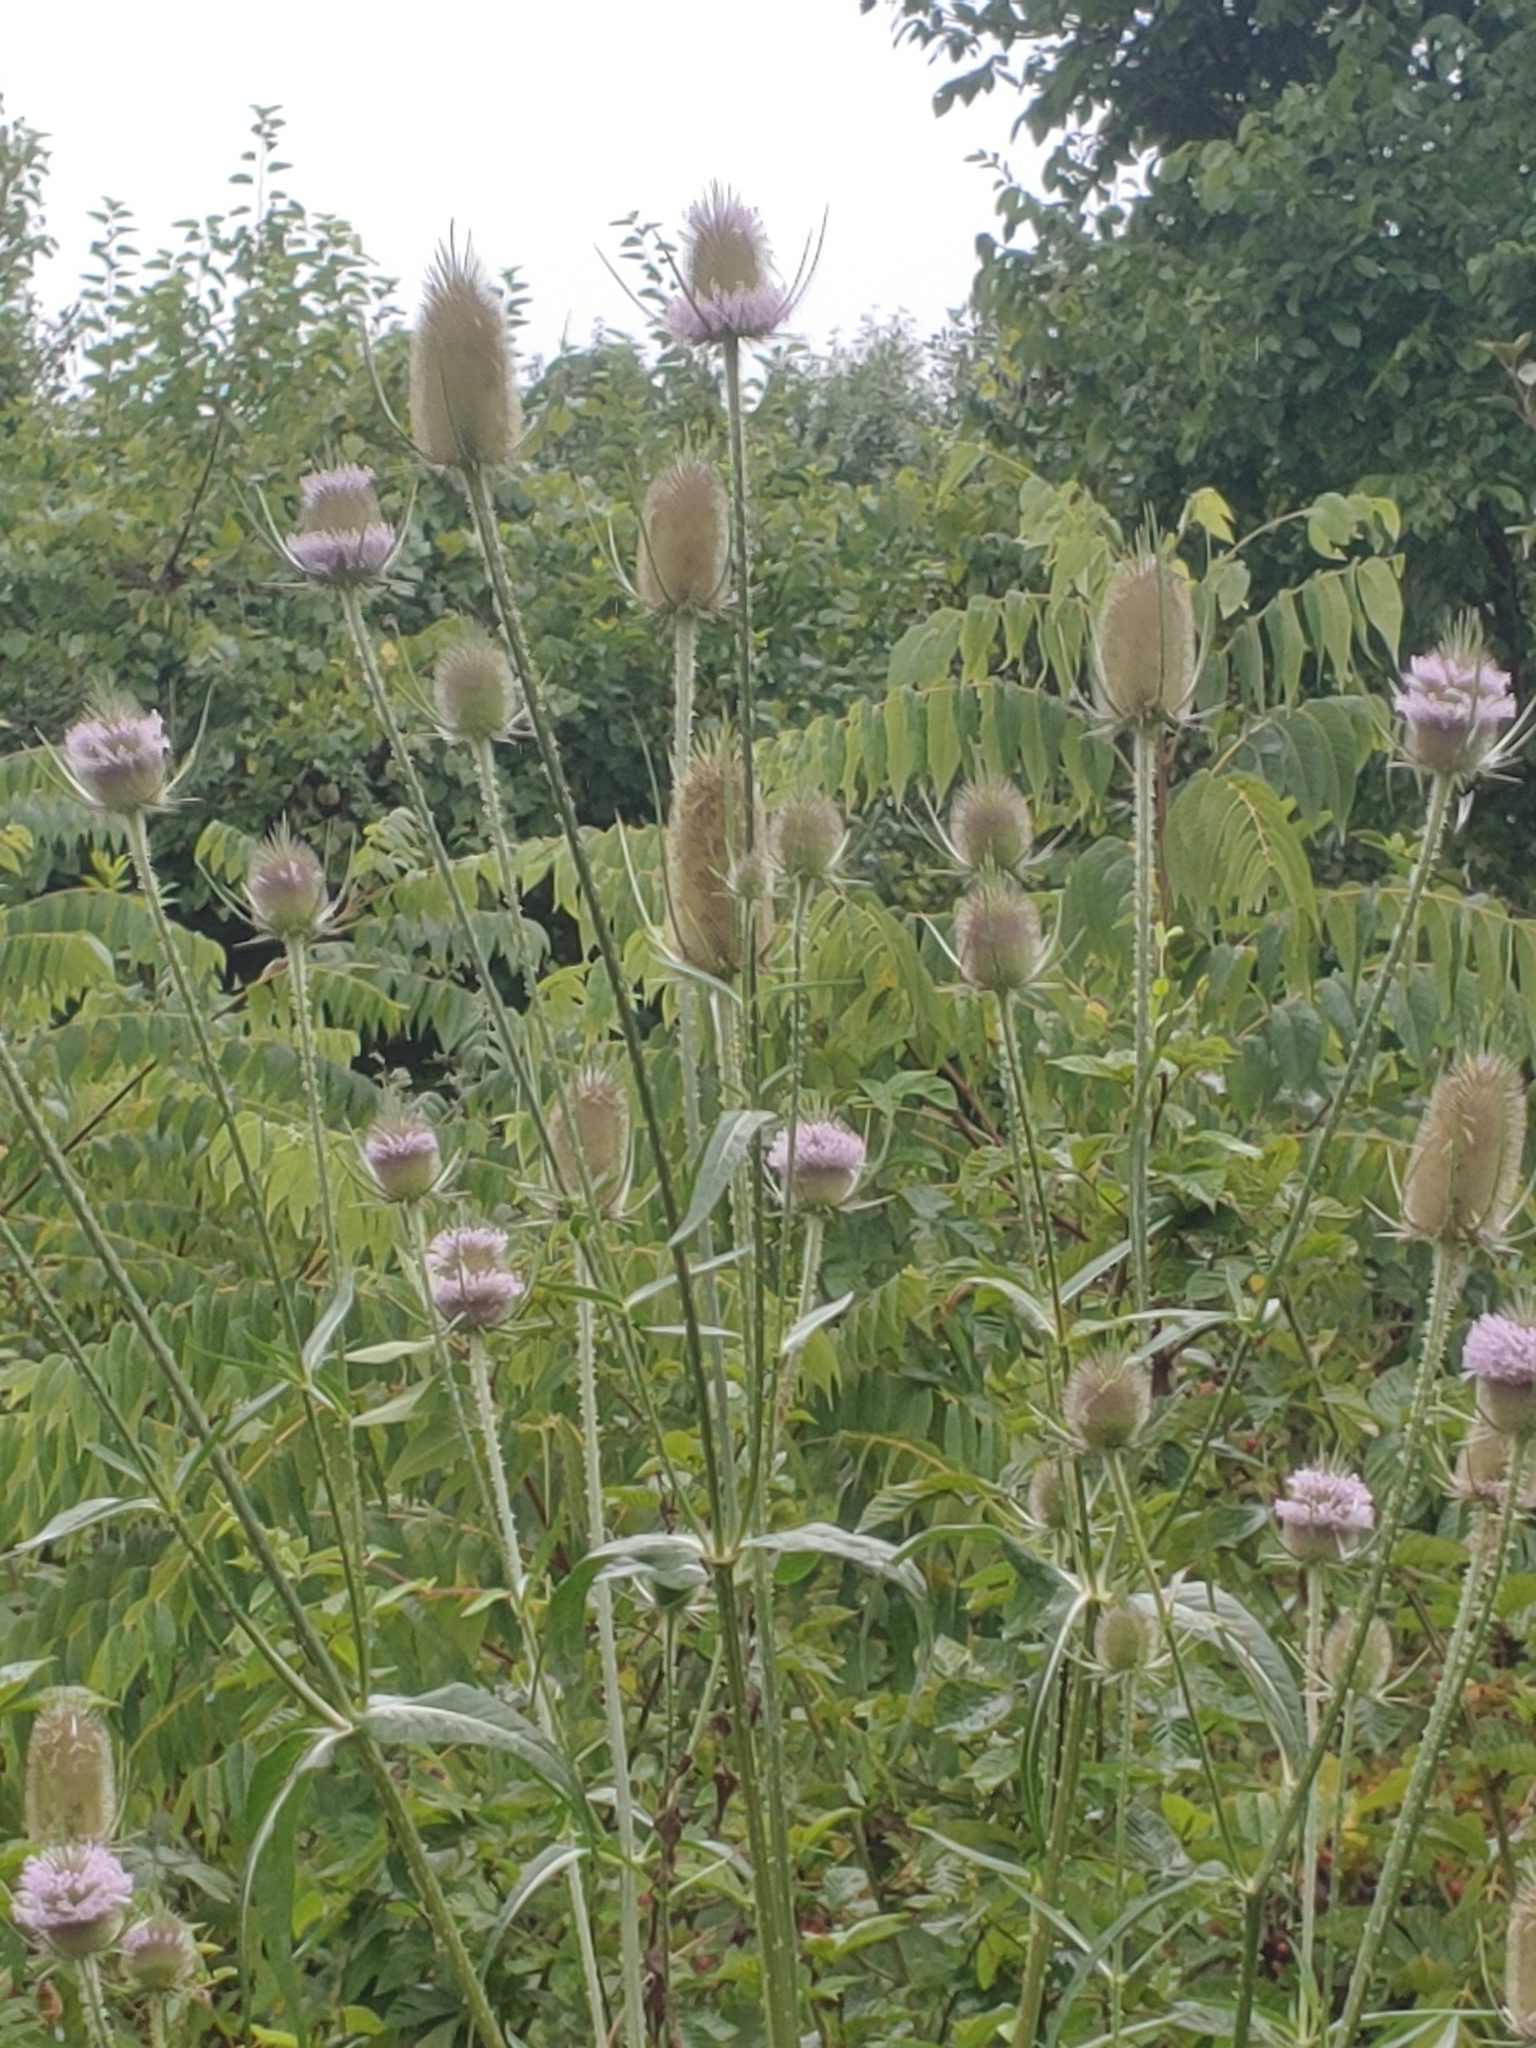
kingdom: Plantae
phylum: Tracheophyta
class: Magnoliopsida
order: Dipsacales
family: Caprifoliaceae
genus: Dipsacus
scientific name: Dipsacus fullonum
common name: Teasel
